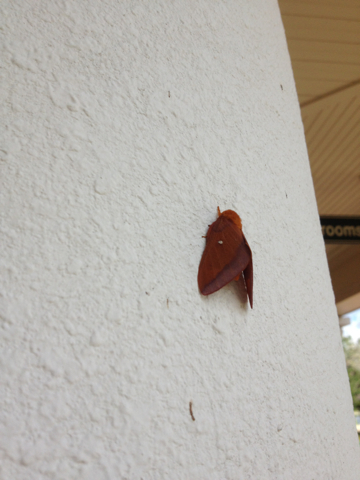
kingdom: Animalia
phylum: Arthropoda
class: Insecta
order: Lepidoptera
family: Saturniidae
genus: Anisota
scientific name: Anisota virginiensis
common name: Pink striped oakworm moth
